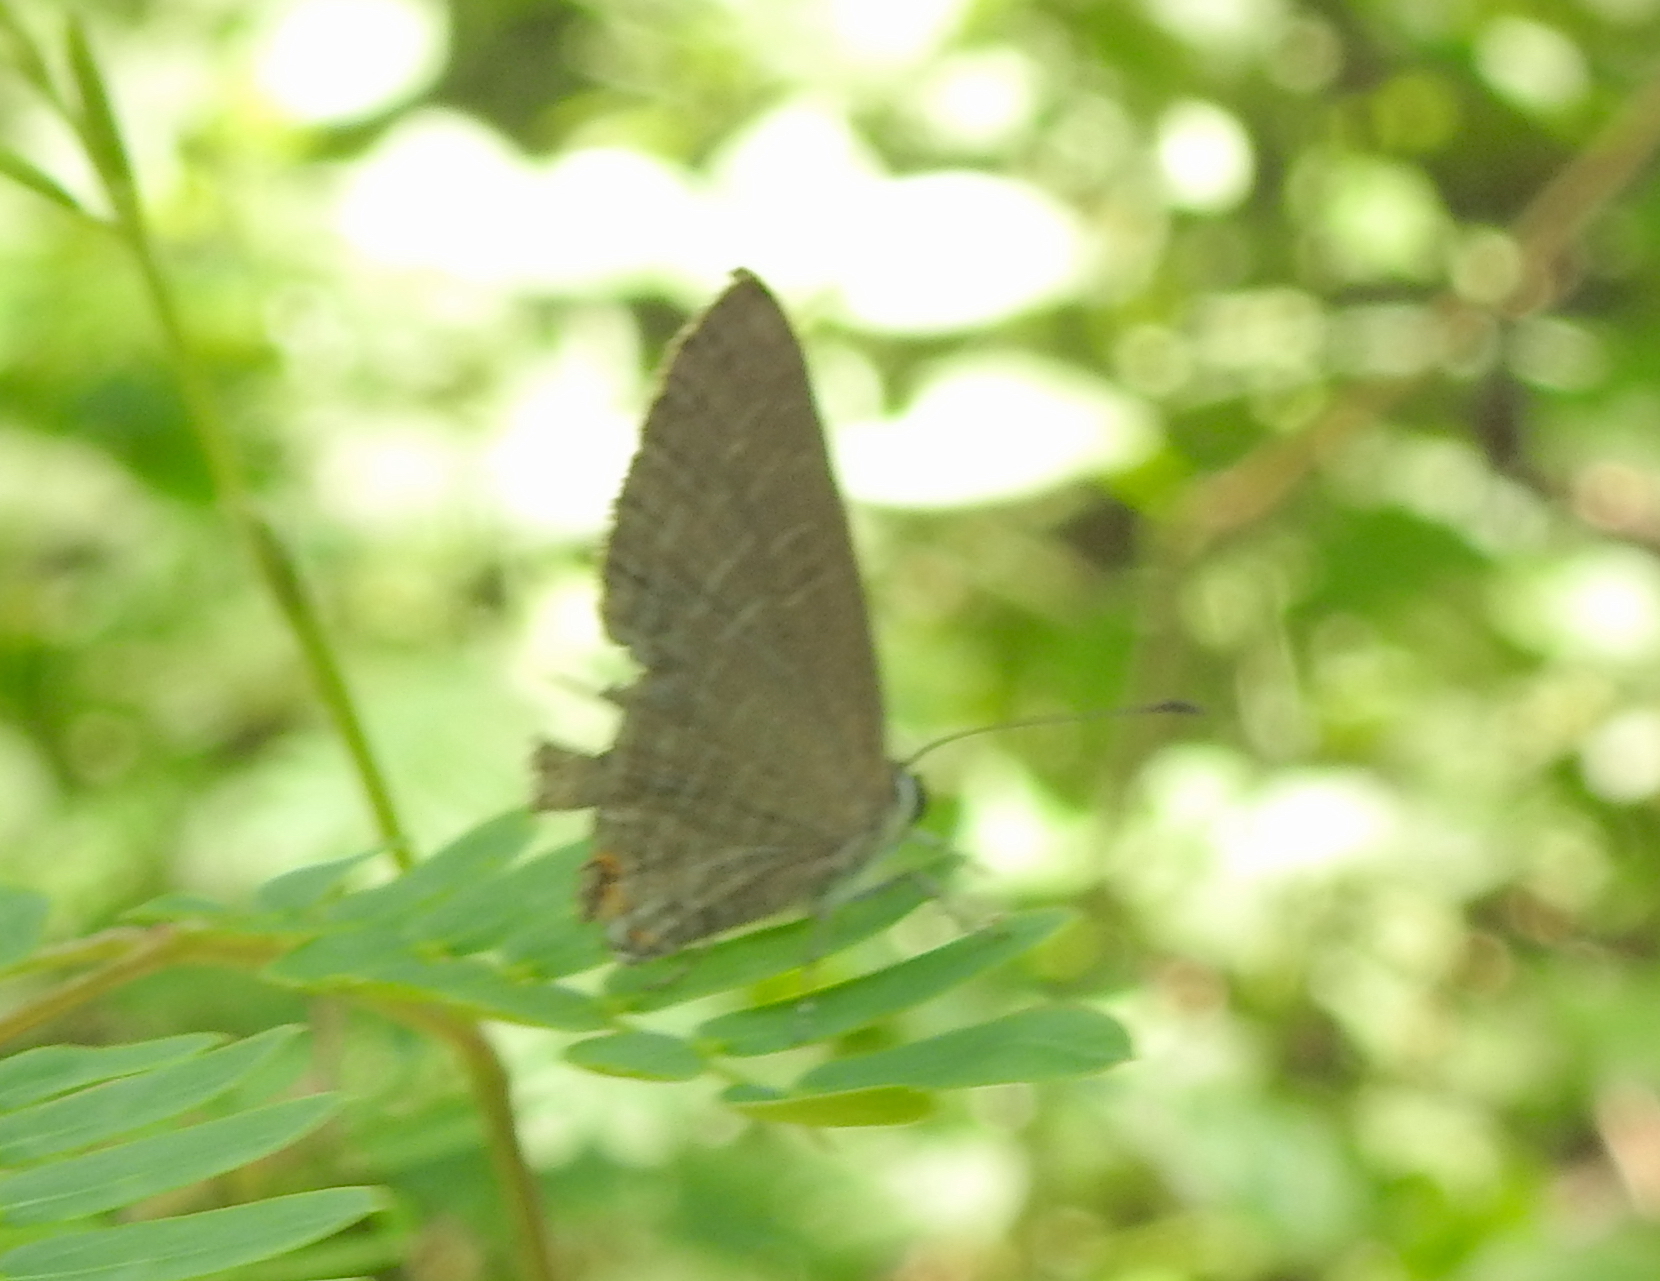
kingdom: Animalia
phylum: Arthropoda
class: Insecta
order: Lepidoptera
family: Lycaenidae
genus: Jamides
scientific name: Jamides bochus
